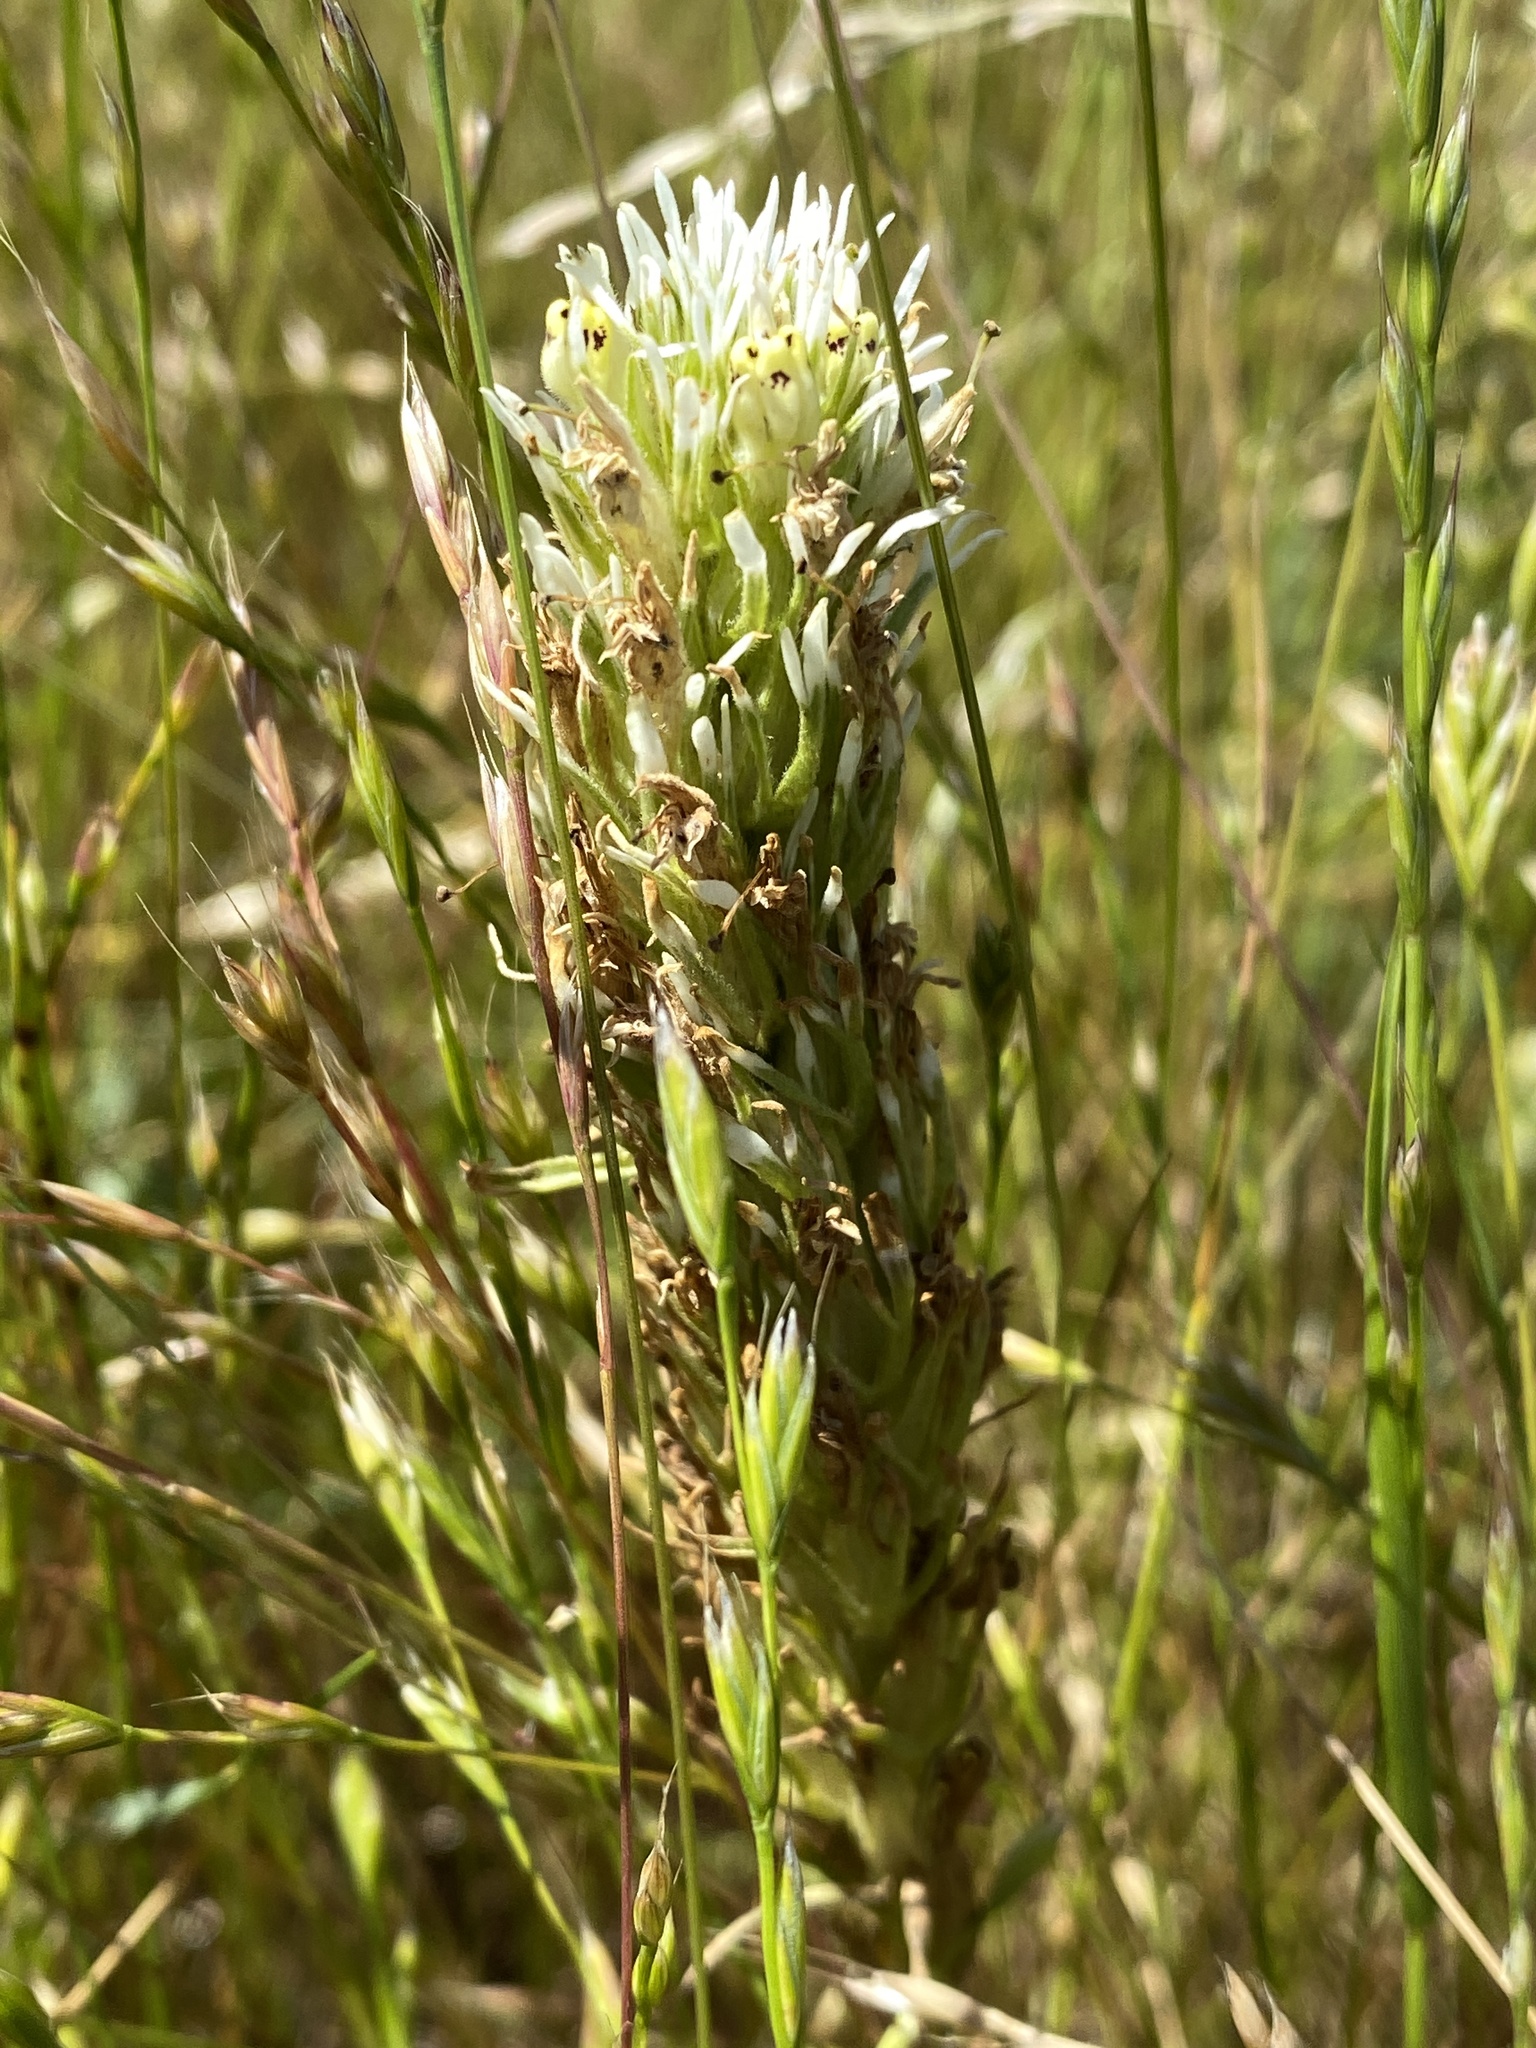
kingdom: Plantae
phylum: Tracheophyta
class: Magnoliopsida
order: Lamiales
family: Orobanchaceae
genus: Castilleja
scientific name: Castilleja densiflora
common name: Dense-flower indian paintbrush
